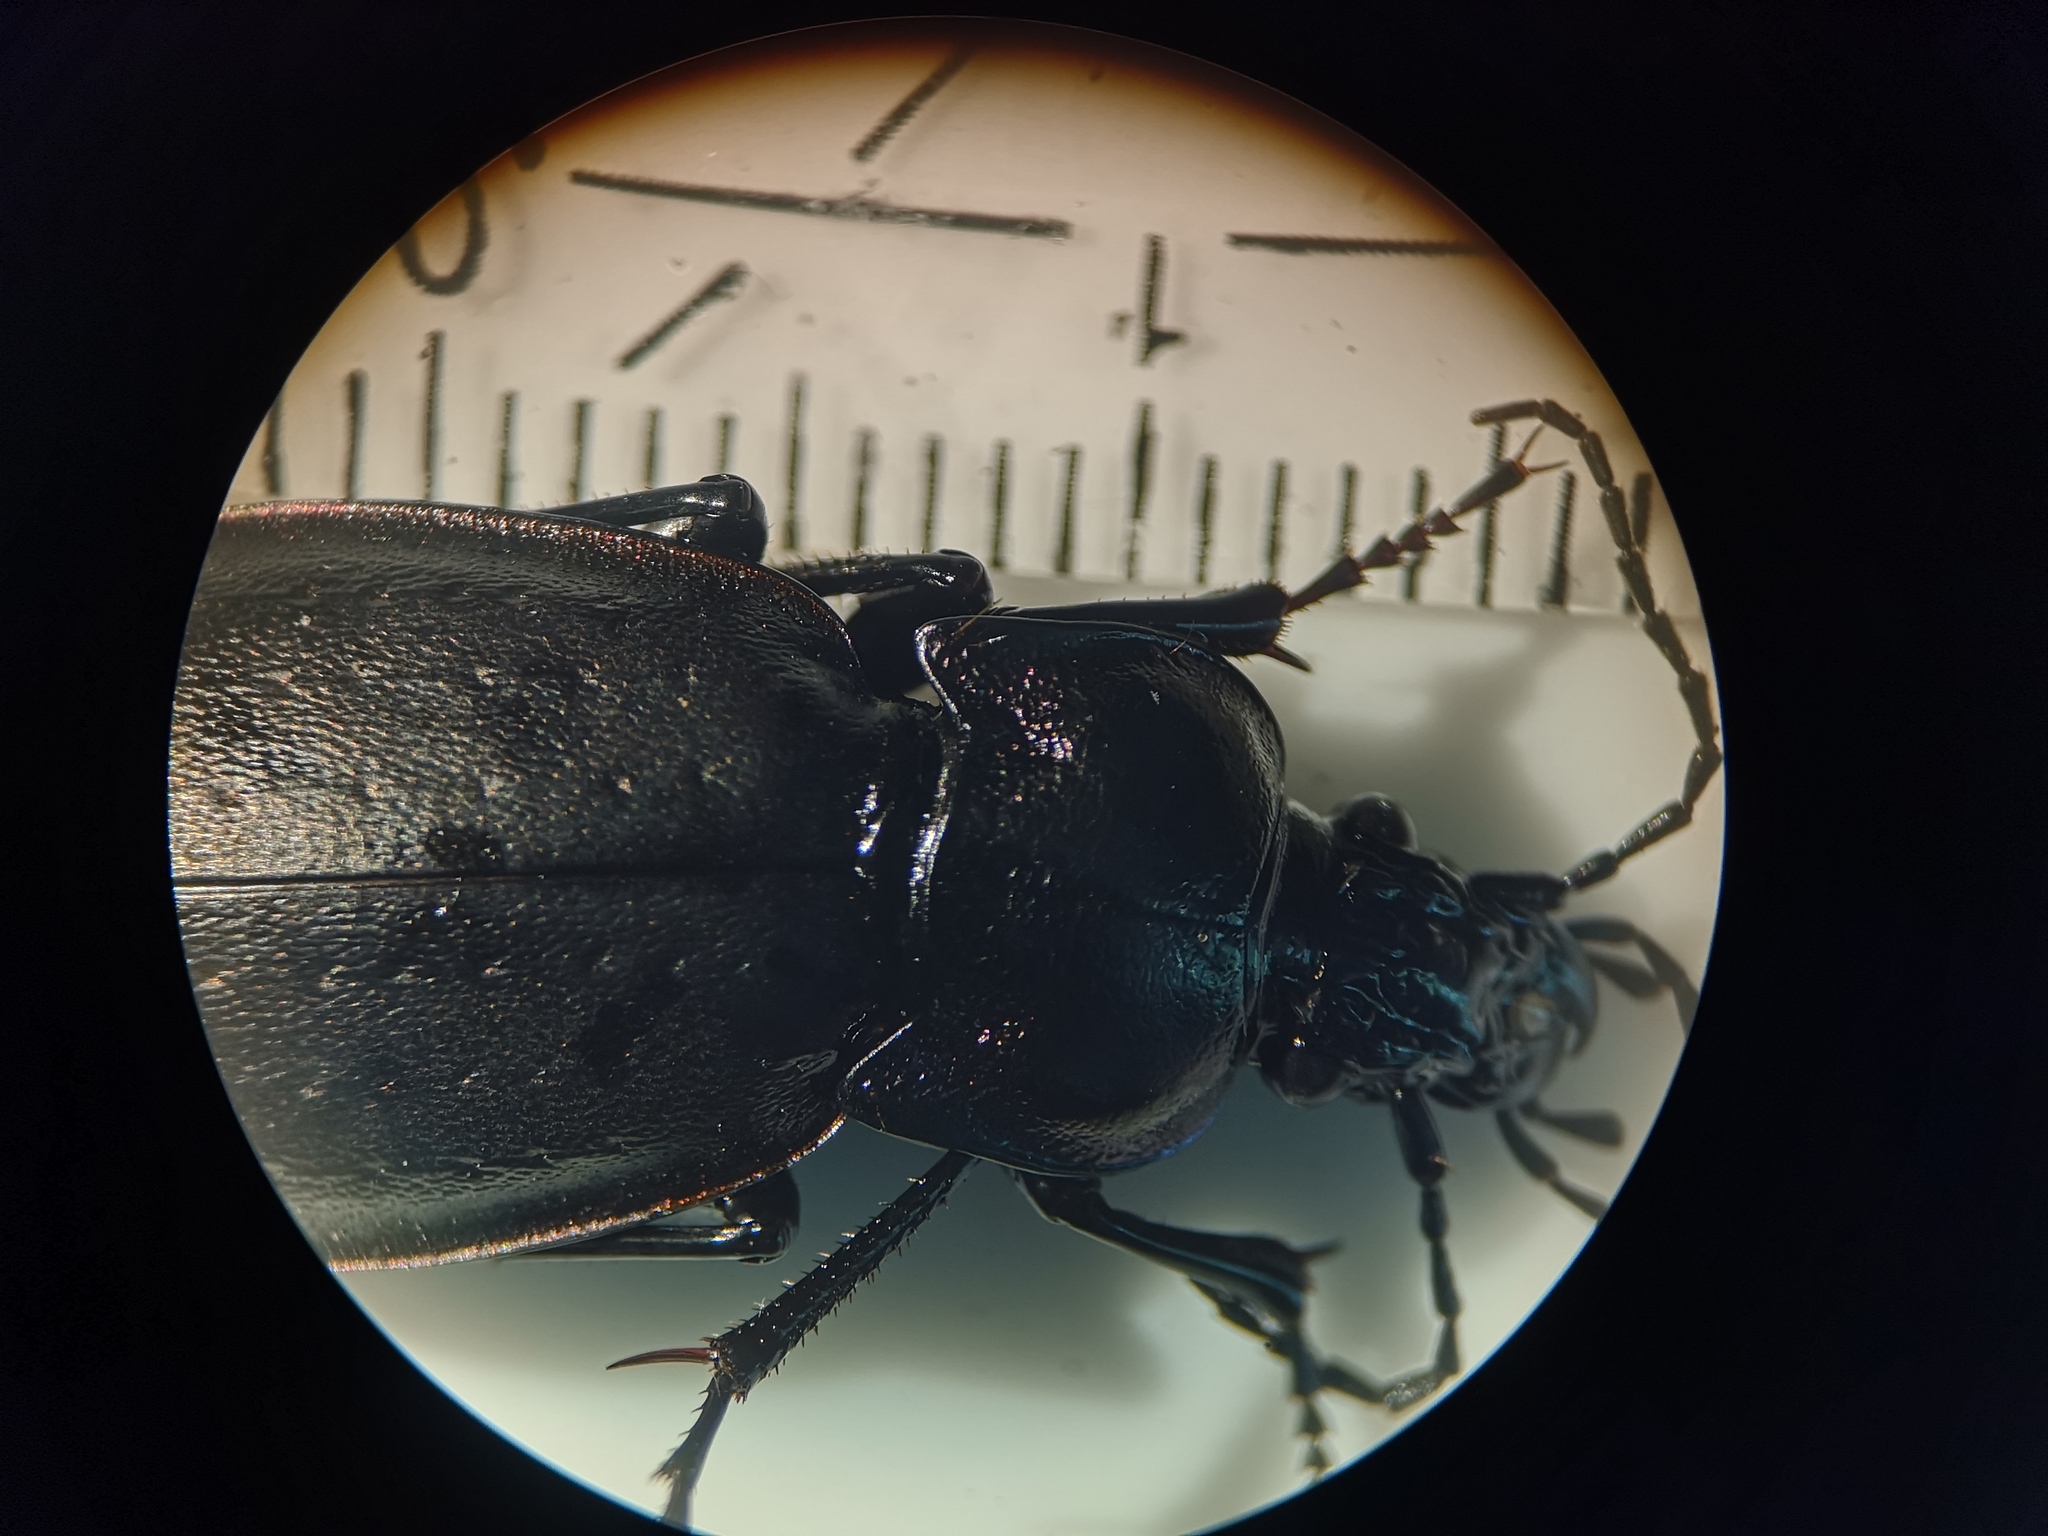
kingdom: Animalia
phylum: Arthropoda
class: Insecta
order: Coleoptera
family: Carabidae
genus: Carabus
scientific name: Carabus nemoralis
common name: European ground beetle
